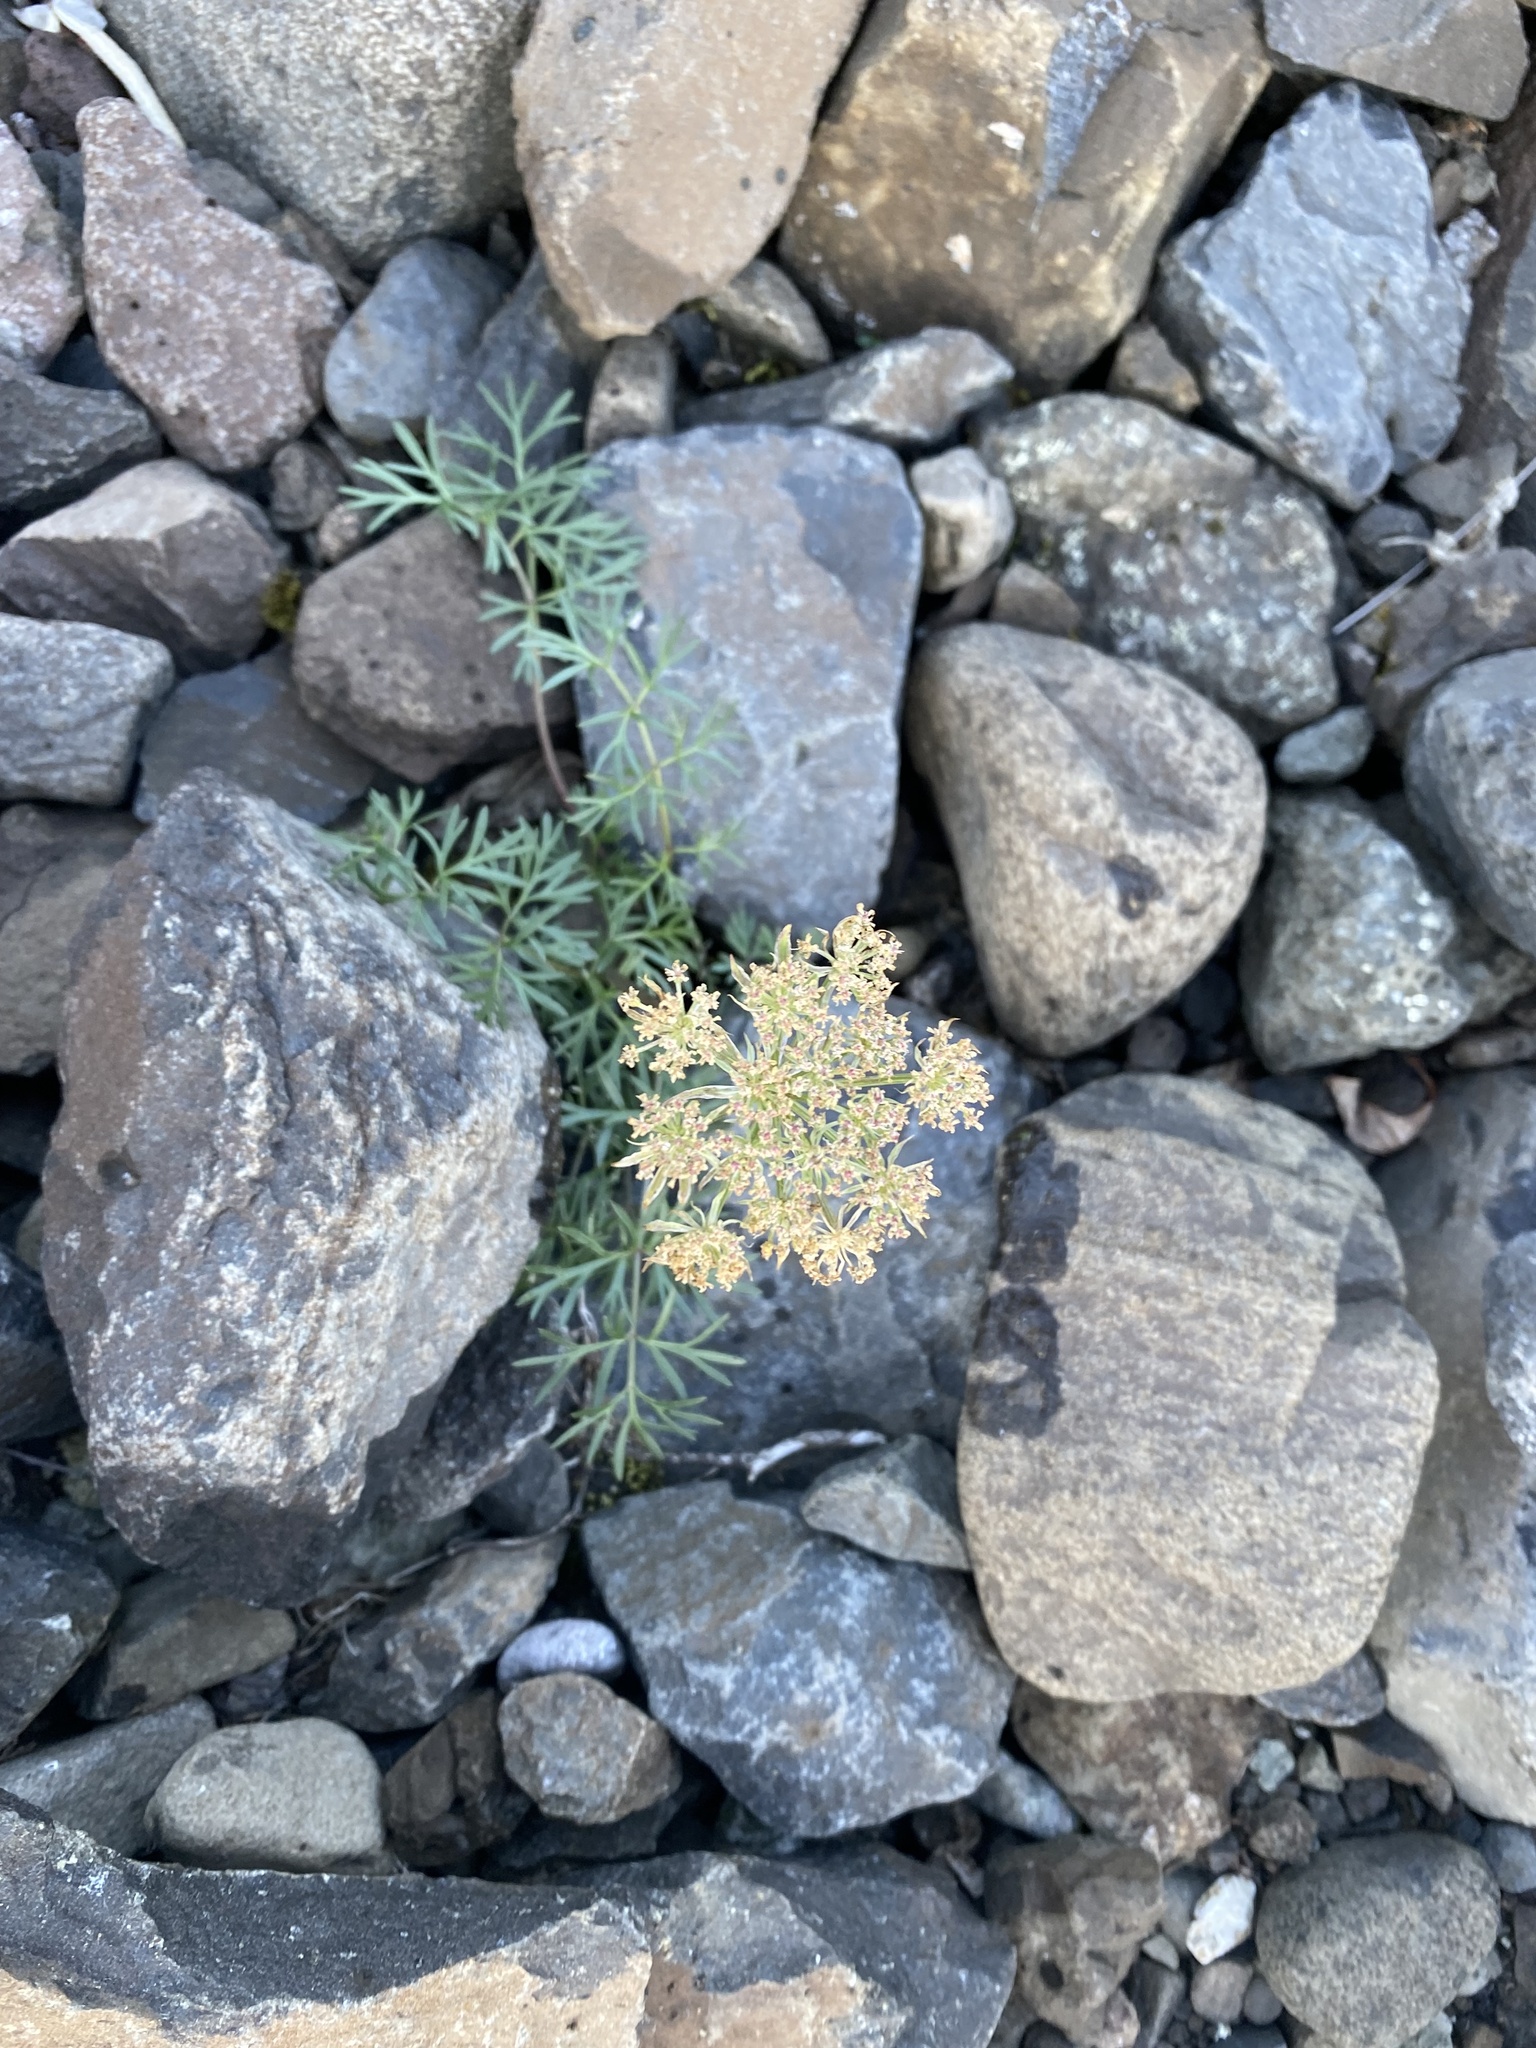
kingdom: Plantae
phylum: Tracheophyta
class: Magnoliopsida
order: Apiales
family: Apiaceae
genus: Pachypleurum
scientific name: Pachypleurum mutellinoides
